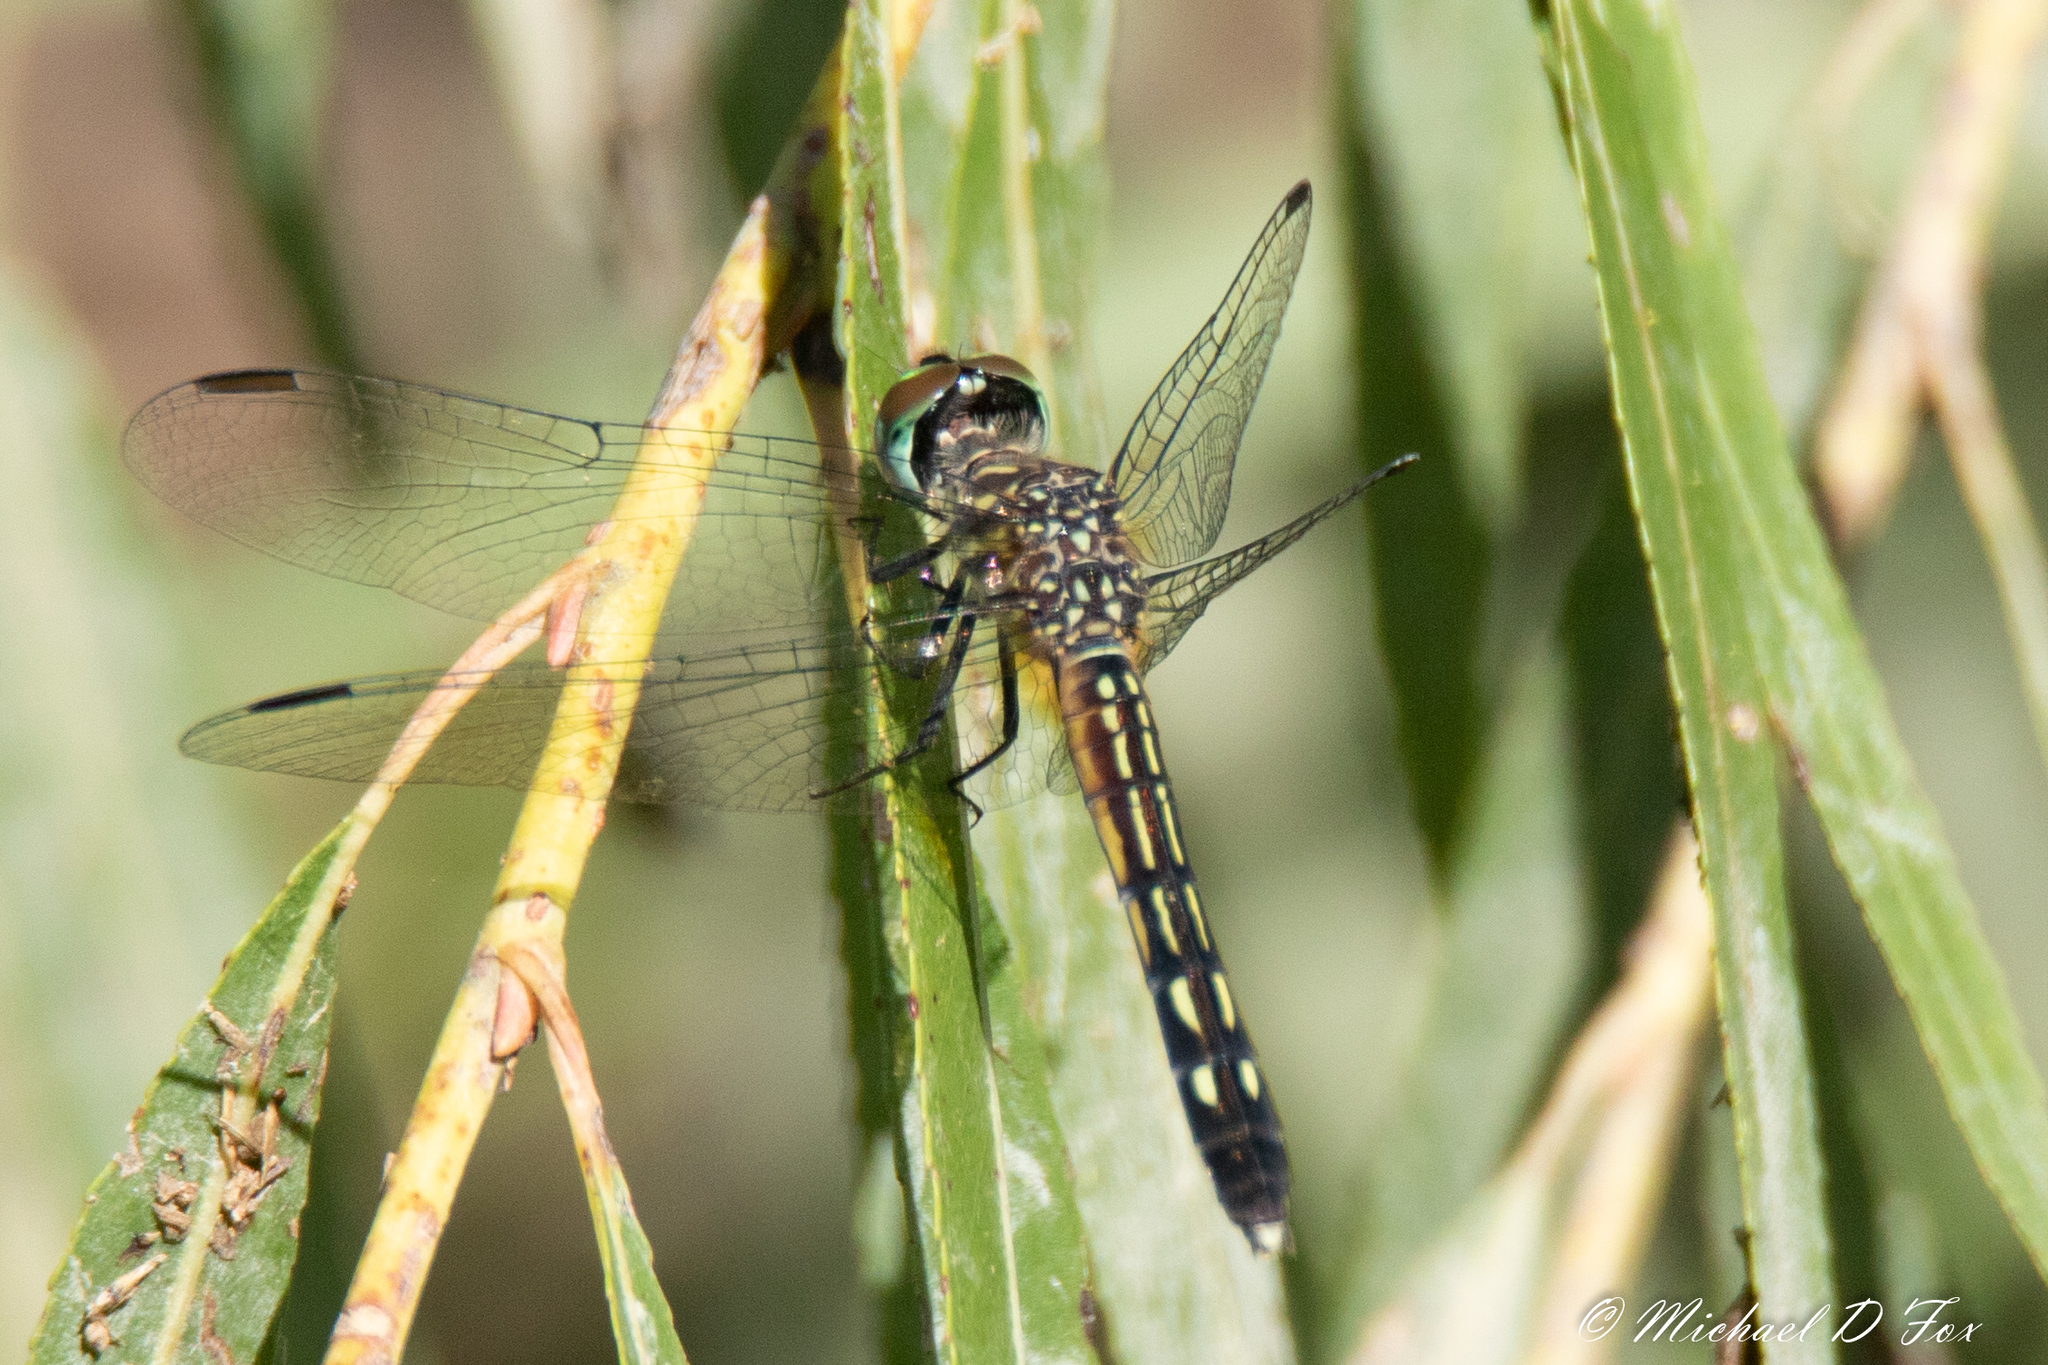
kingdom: Animalia
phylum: Arthropoda
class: Insecta
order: Odonata
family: Libellulidae
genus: Pachydiplax
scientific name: Pachydiplax longipennis
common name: Blue dasher
